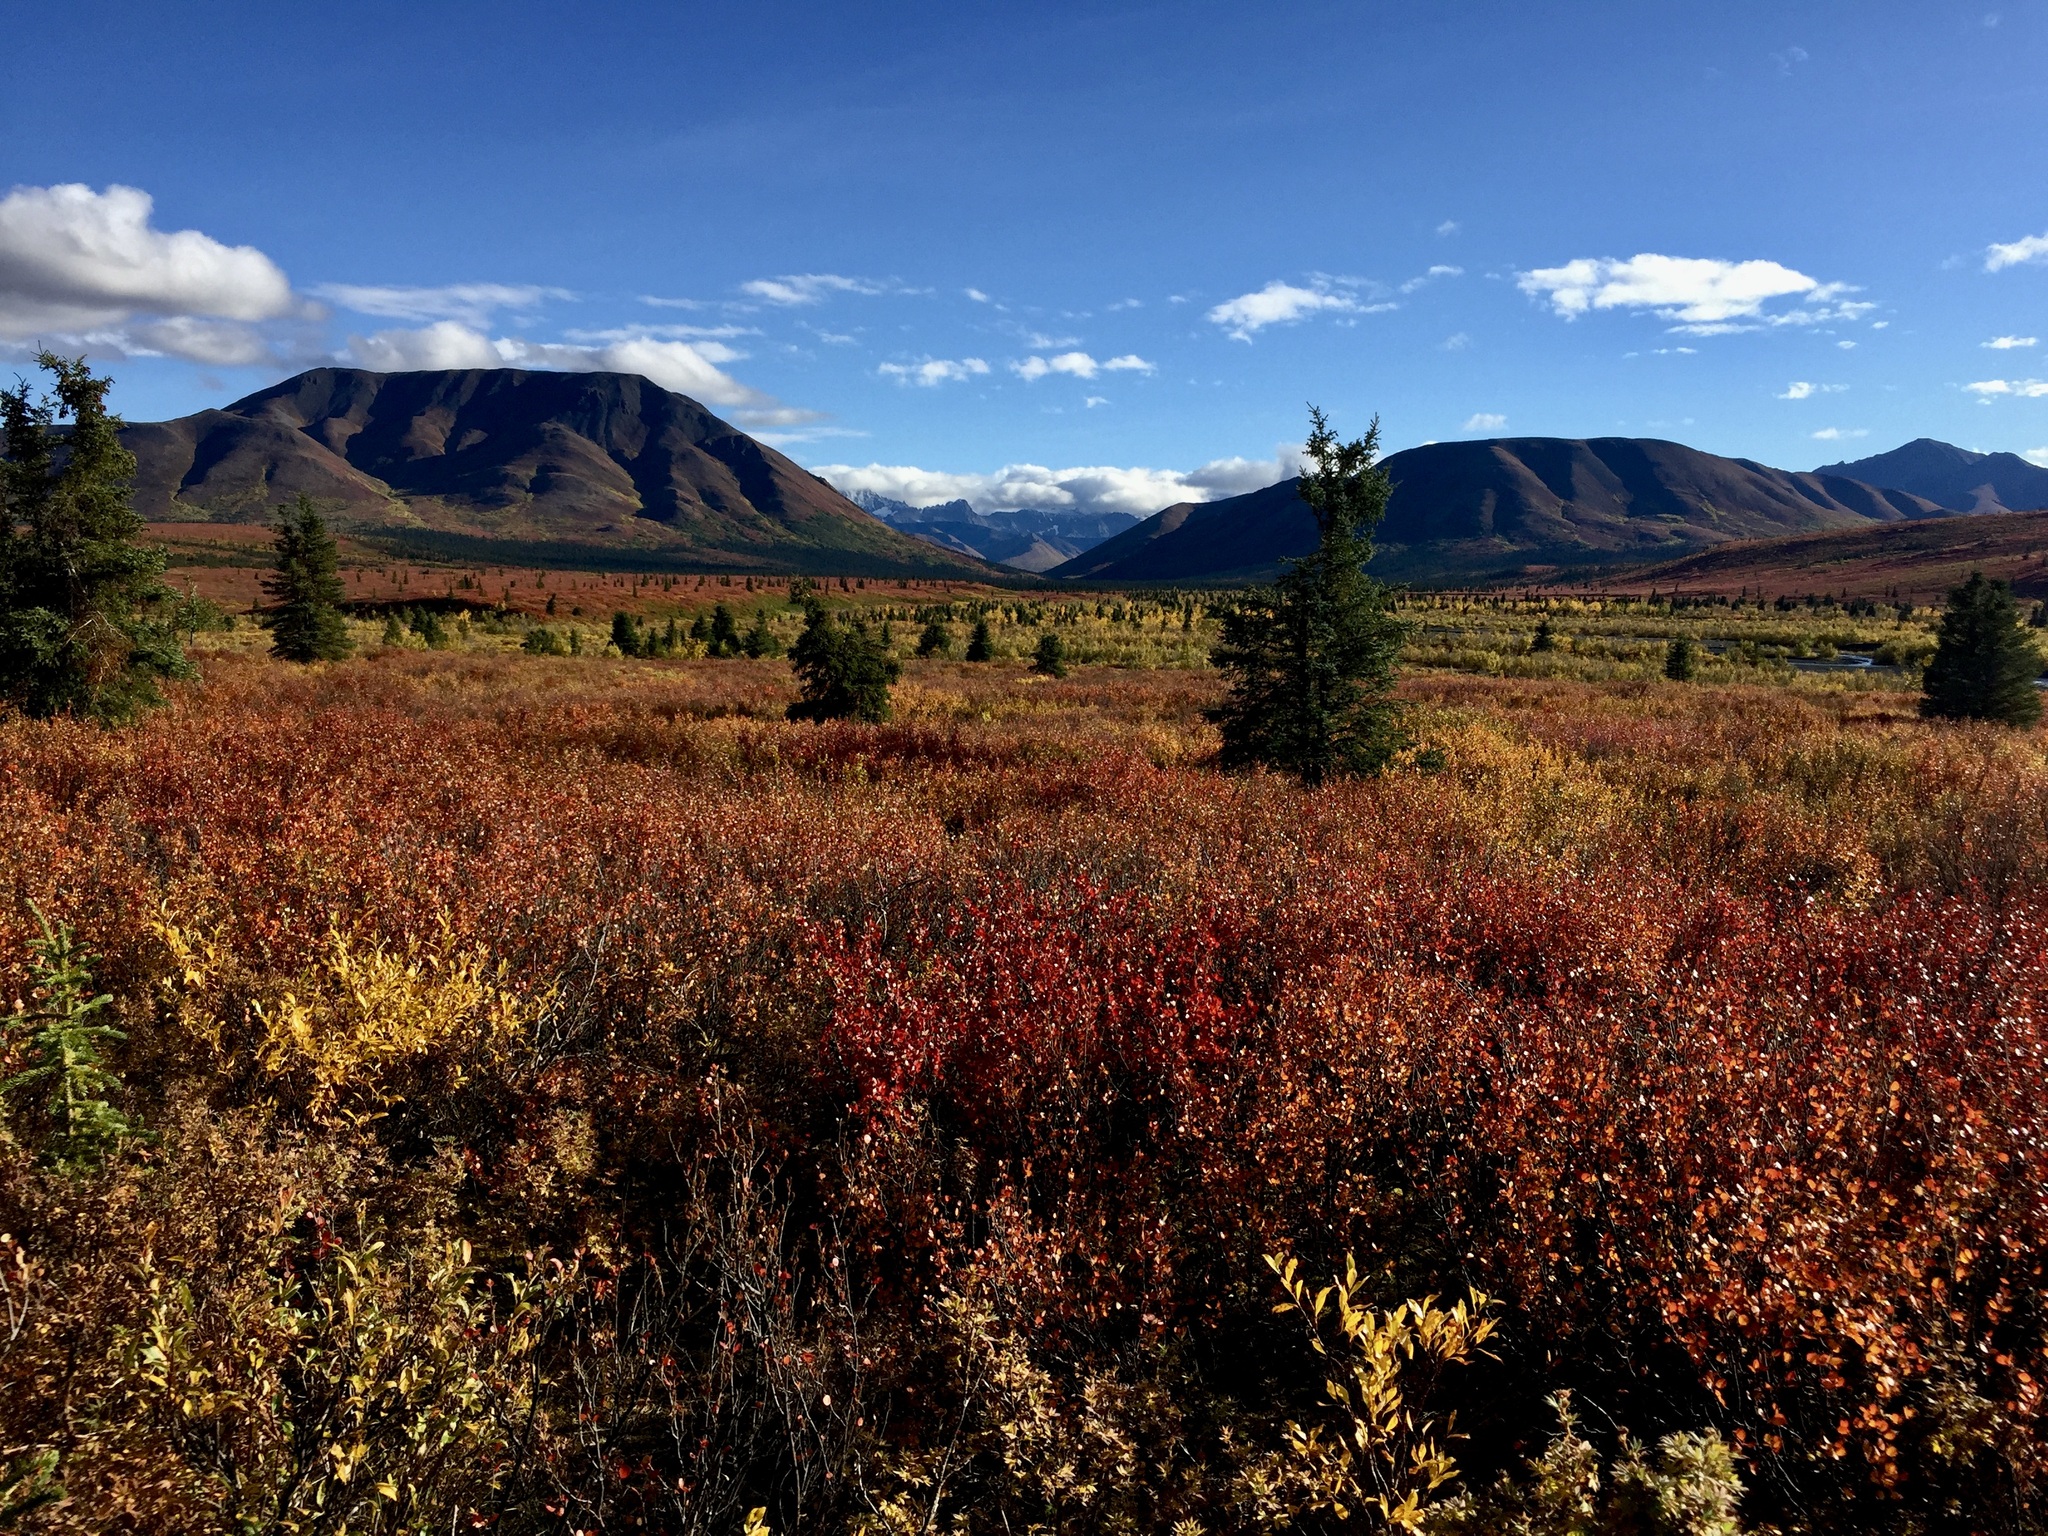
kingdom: Plantae
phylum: Tracheophyta
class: Magnoliopsida
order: Fagales
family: Betulaceae
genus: Betula
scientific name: Betula nana
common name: Arctic dwarf birch
